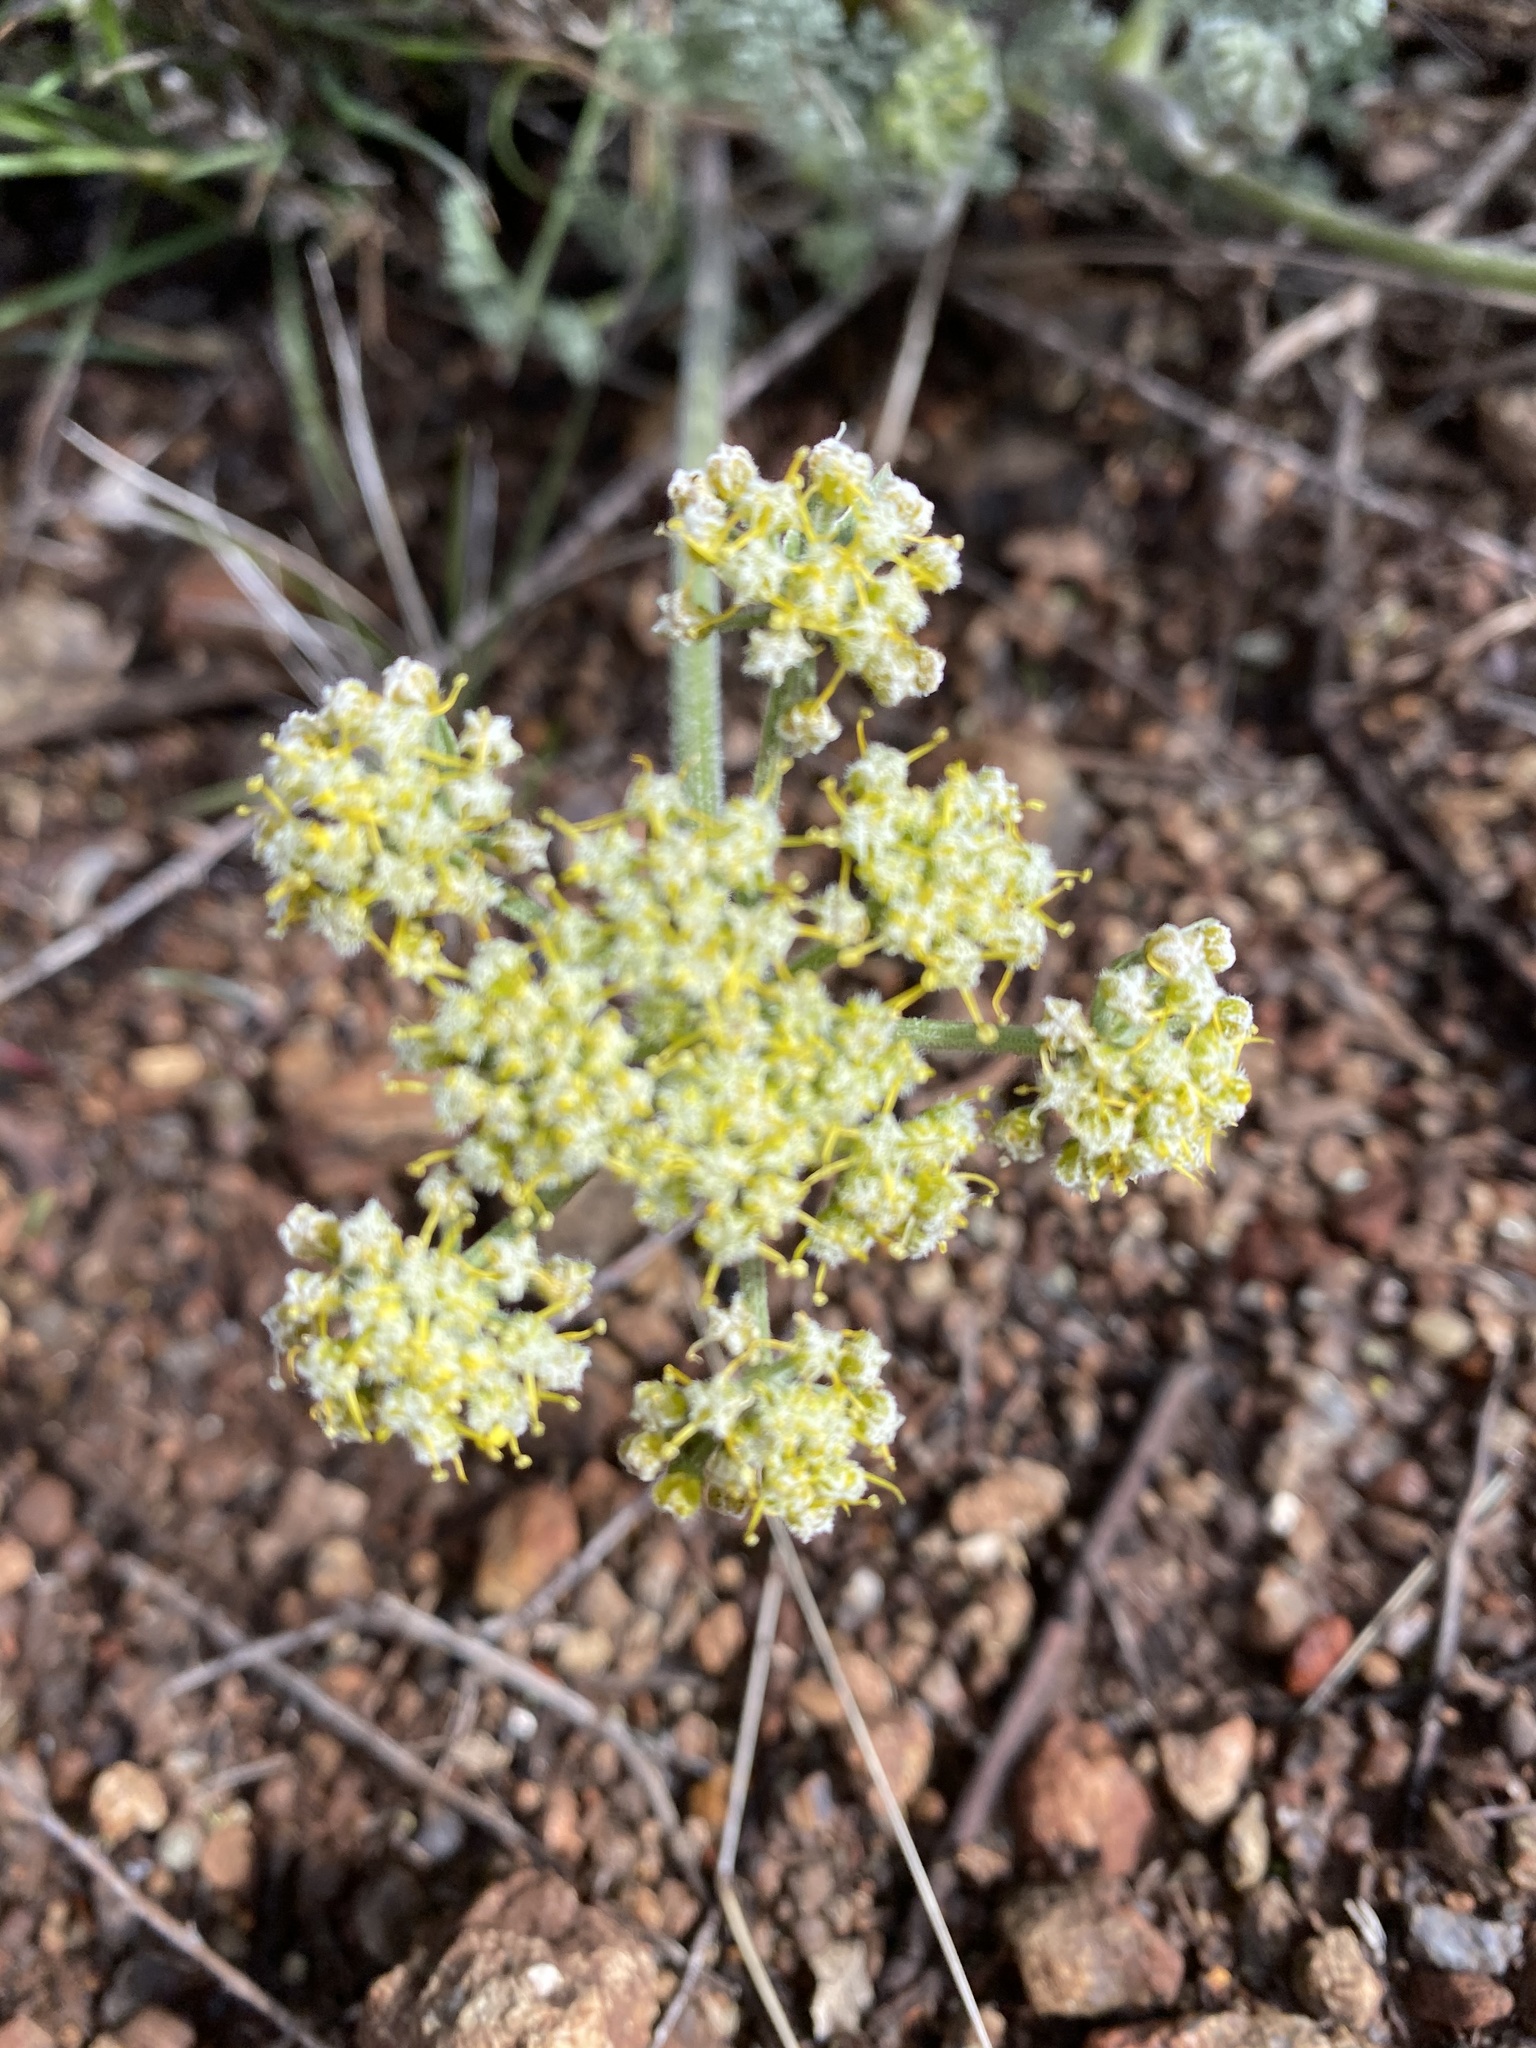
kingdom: Plantae
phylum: Tracheophyta
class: Magnoliopsida
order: Apiales
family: Apiaceae
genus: Lomatium
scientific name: Lomatium dasycarpum
